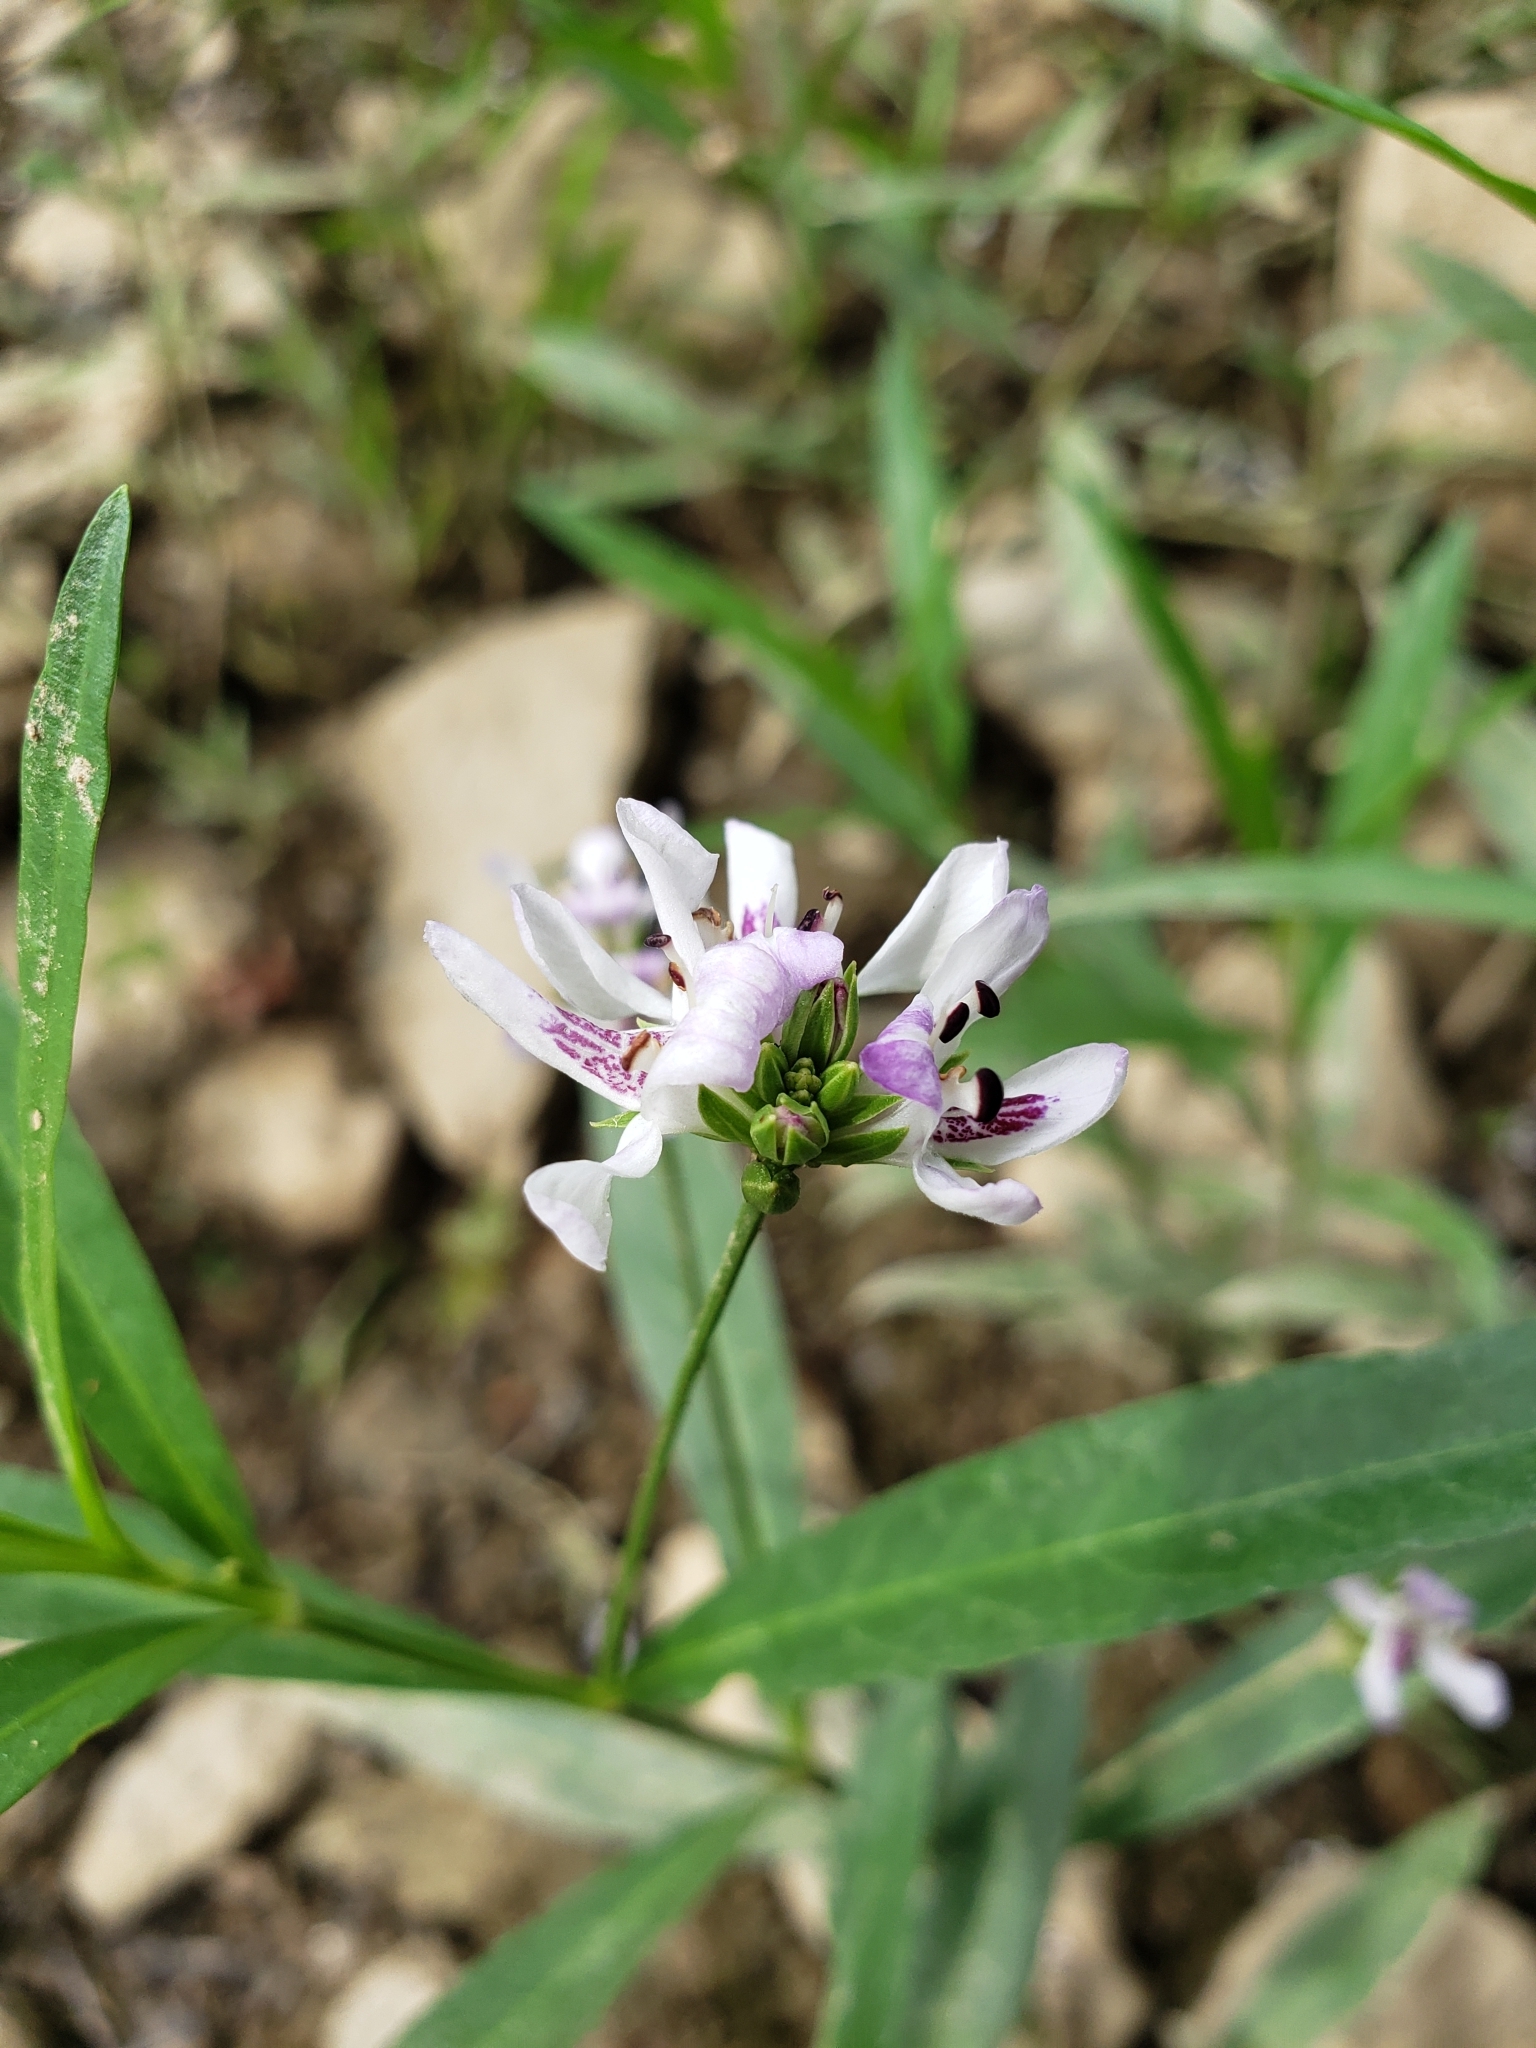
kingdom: Plantae
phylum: Tracheophyta
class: Magnoliopsida
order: Lamiales
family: Acanthaceae
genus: Dianthera
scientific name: Dianthera americana
